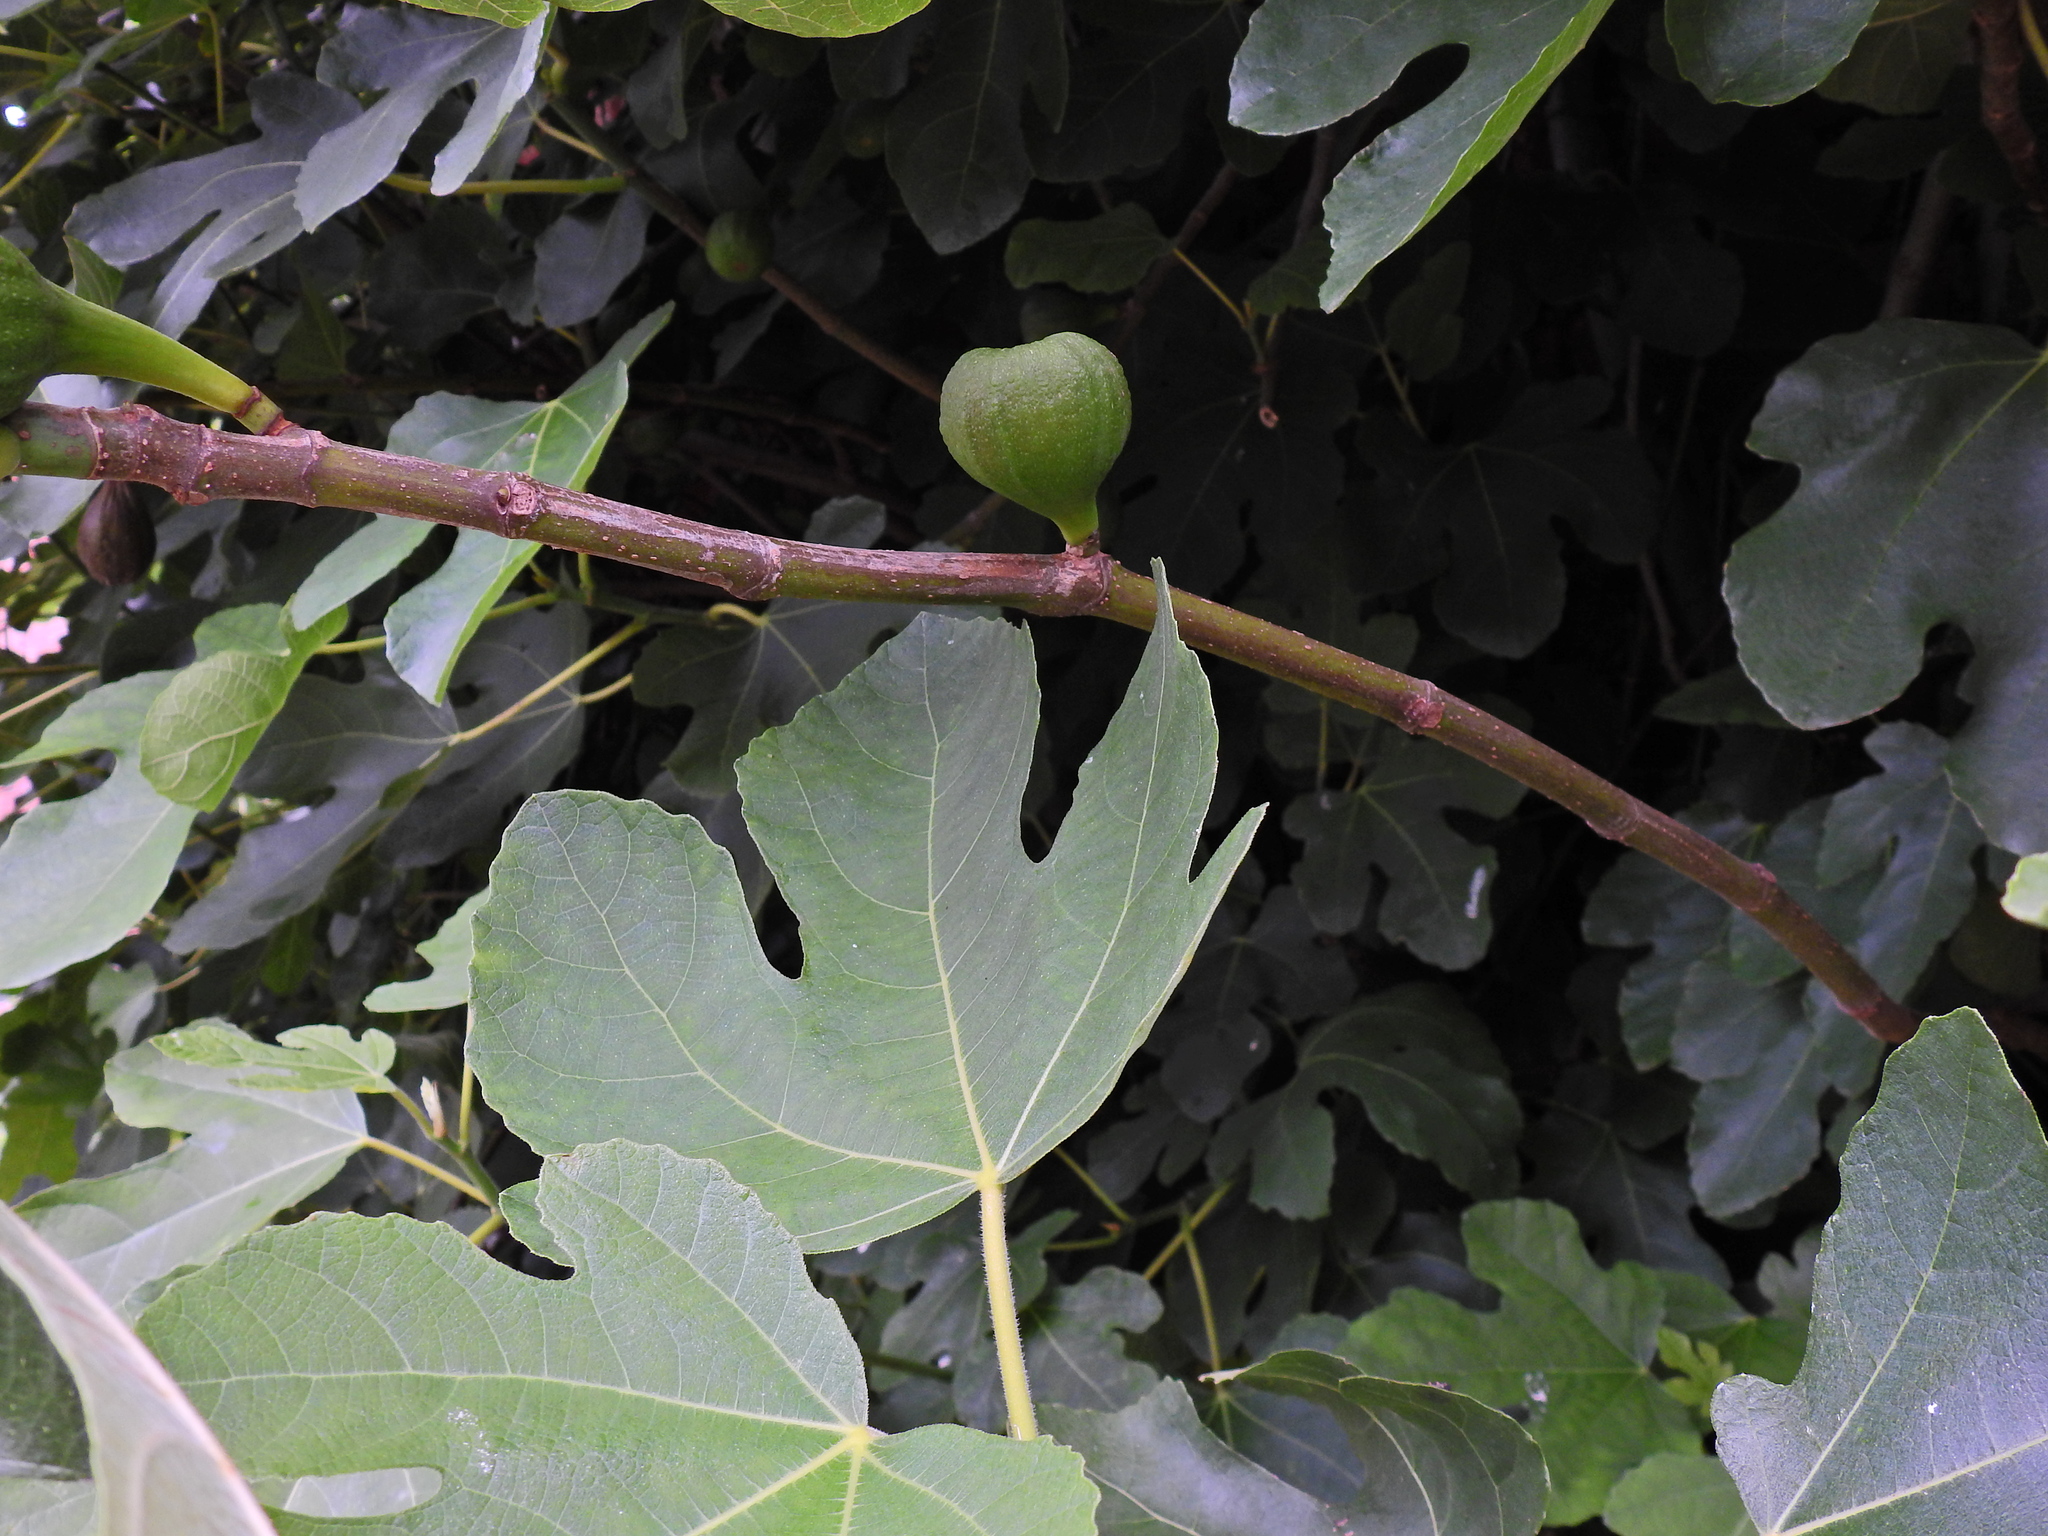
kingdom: Plantae
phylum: Tracheophyta
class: Magnoliopsida
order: Rosales
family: Moraceae
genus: Ficus
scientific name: Ficus carica
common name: Fig
